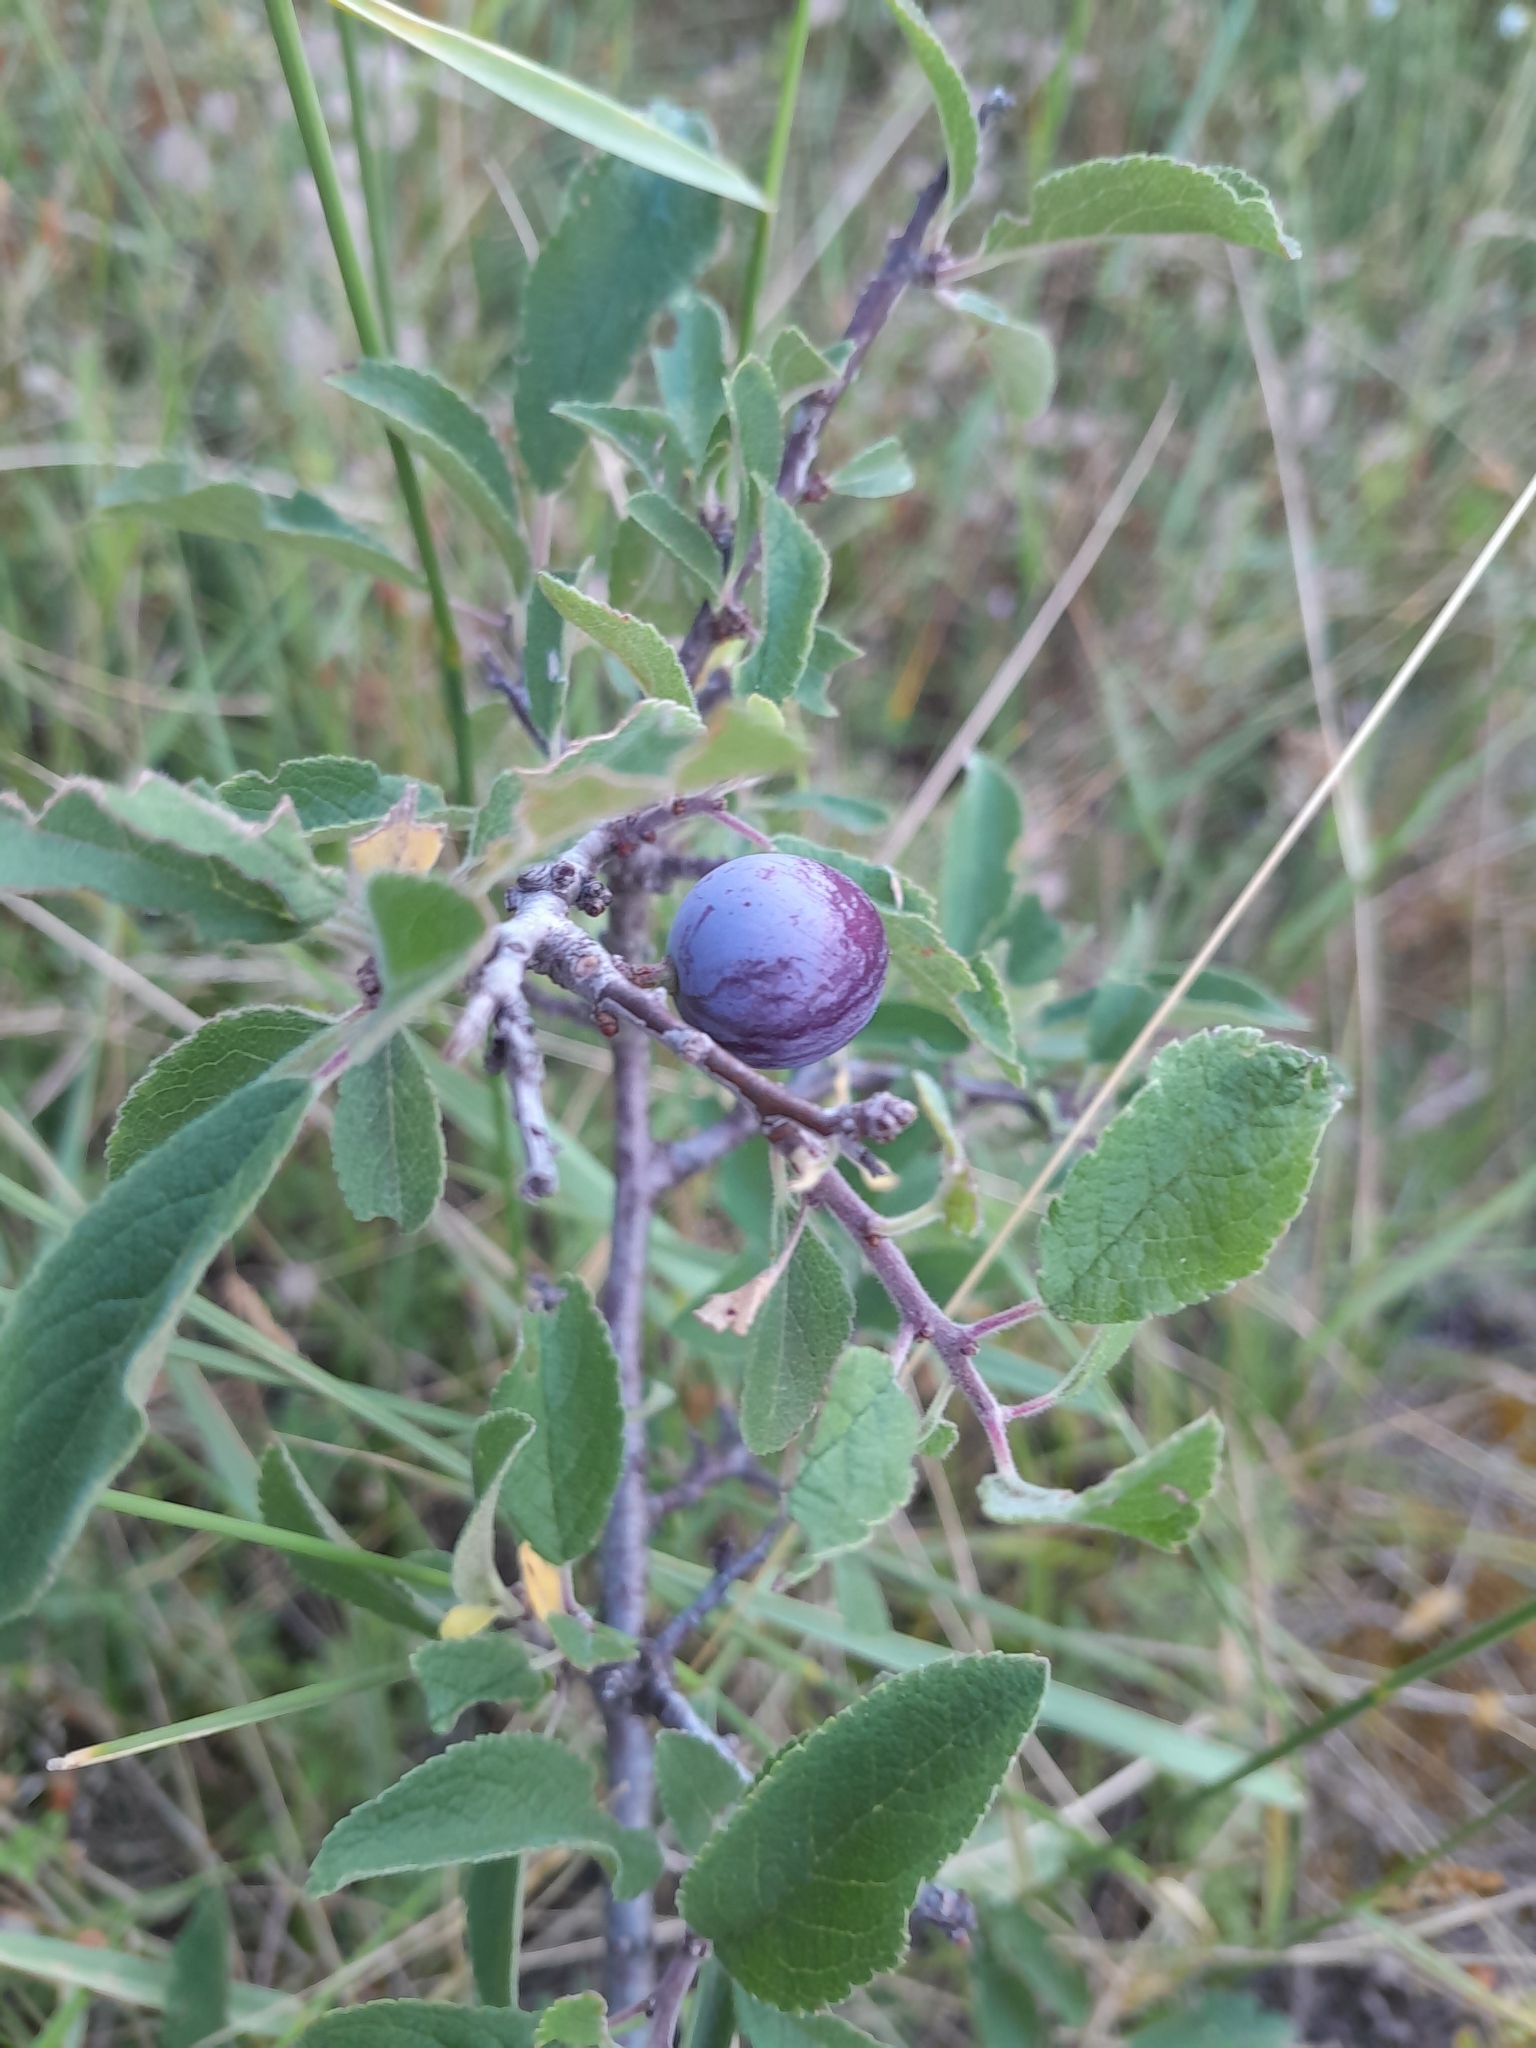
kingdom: Plantae
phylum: Tracheophyta
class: Magnoliopsida
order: Rosales
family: Rosaceae
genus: Prunus
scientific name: Prunus spinosa
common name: Blackthorn
